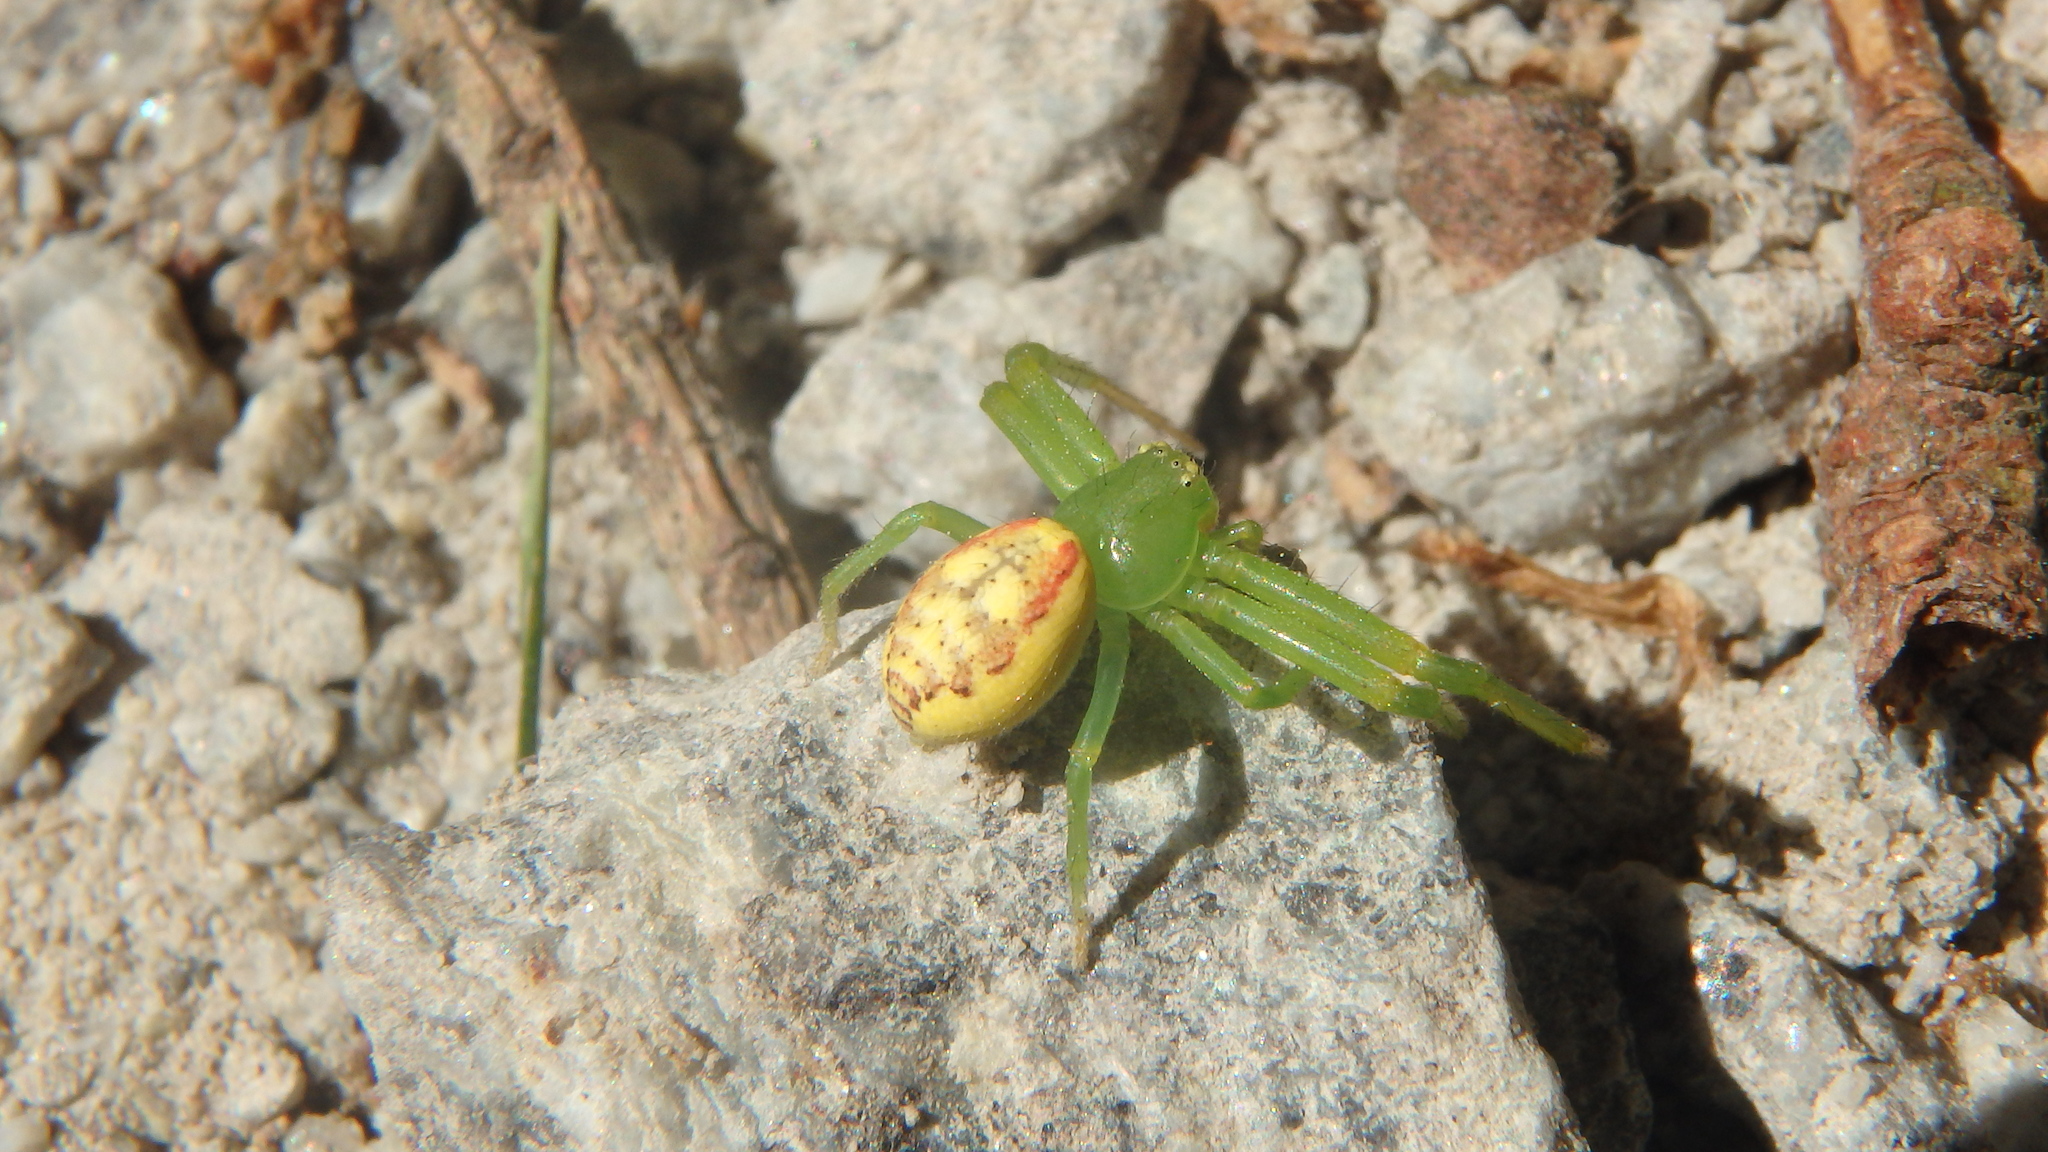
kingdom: Animalia
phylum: Arthropoda
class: Arachnida
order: Araneae
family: Thomisidae
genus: Diaea
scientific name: Diaea livens
